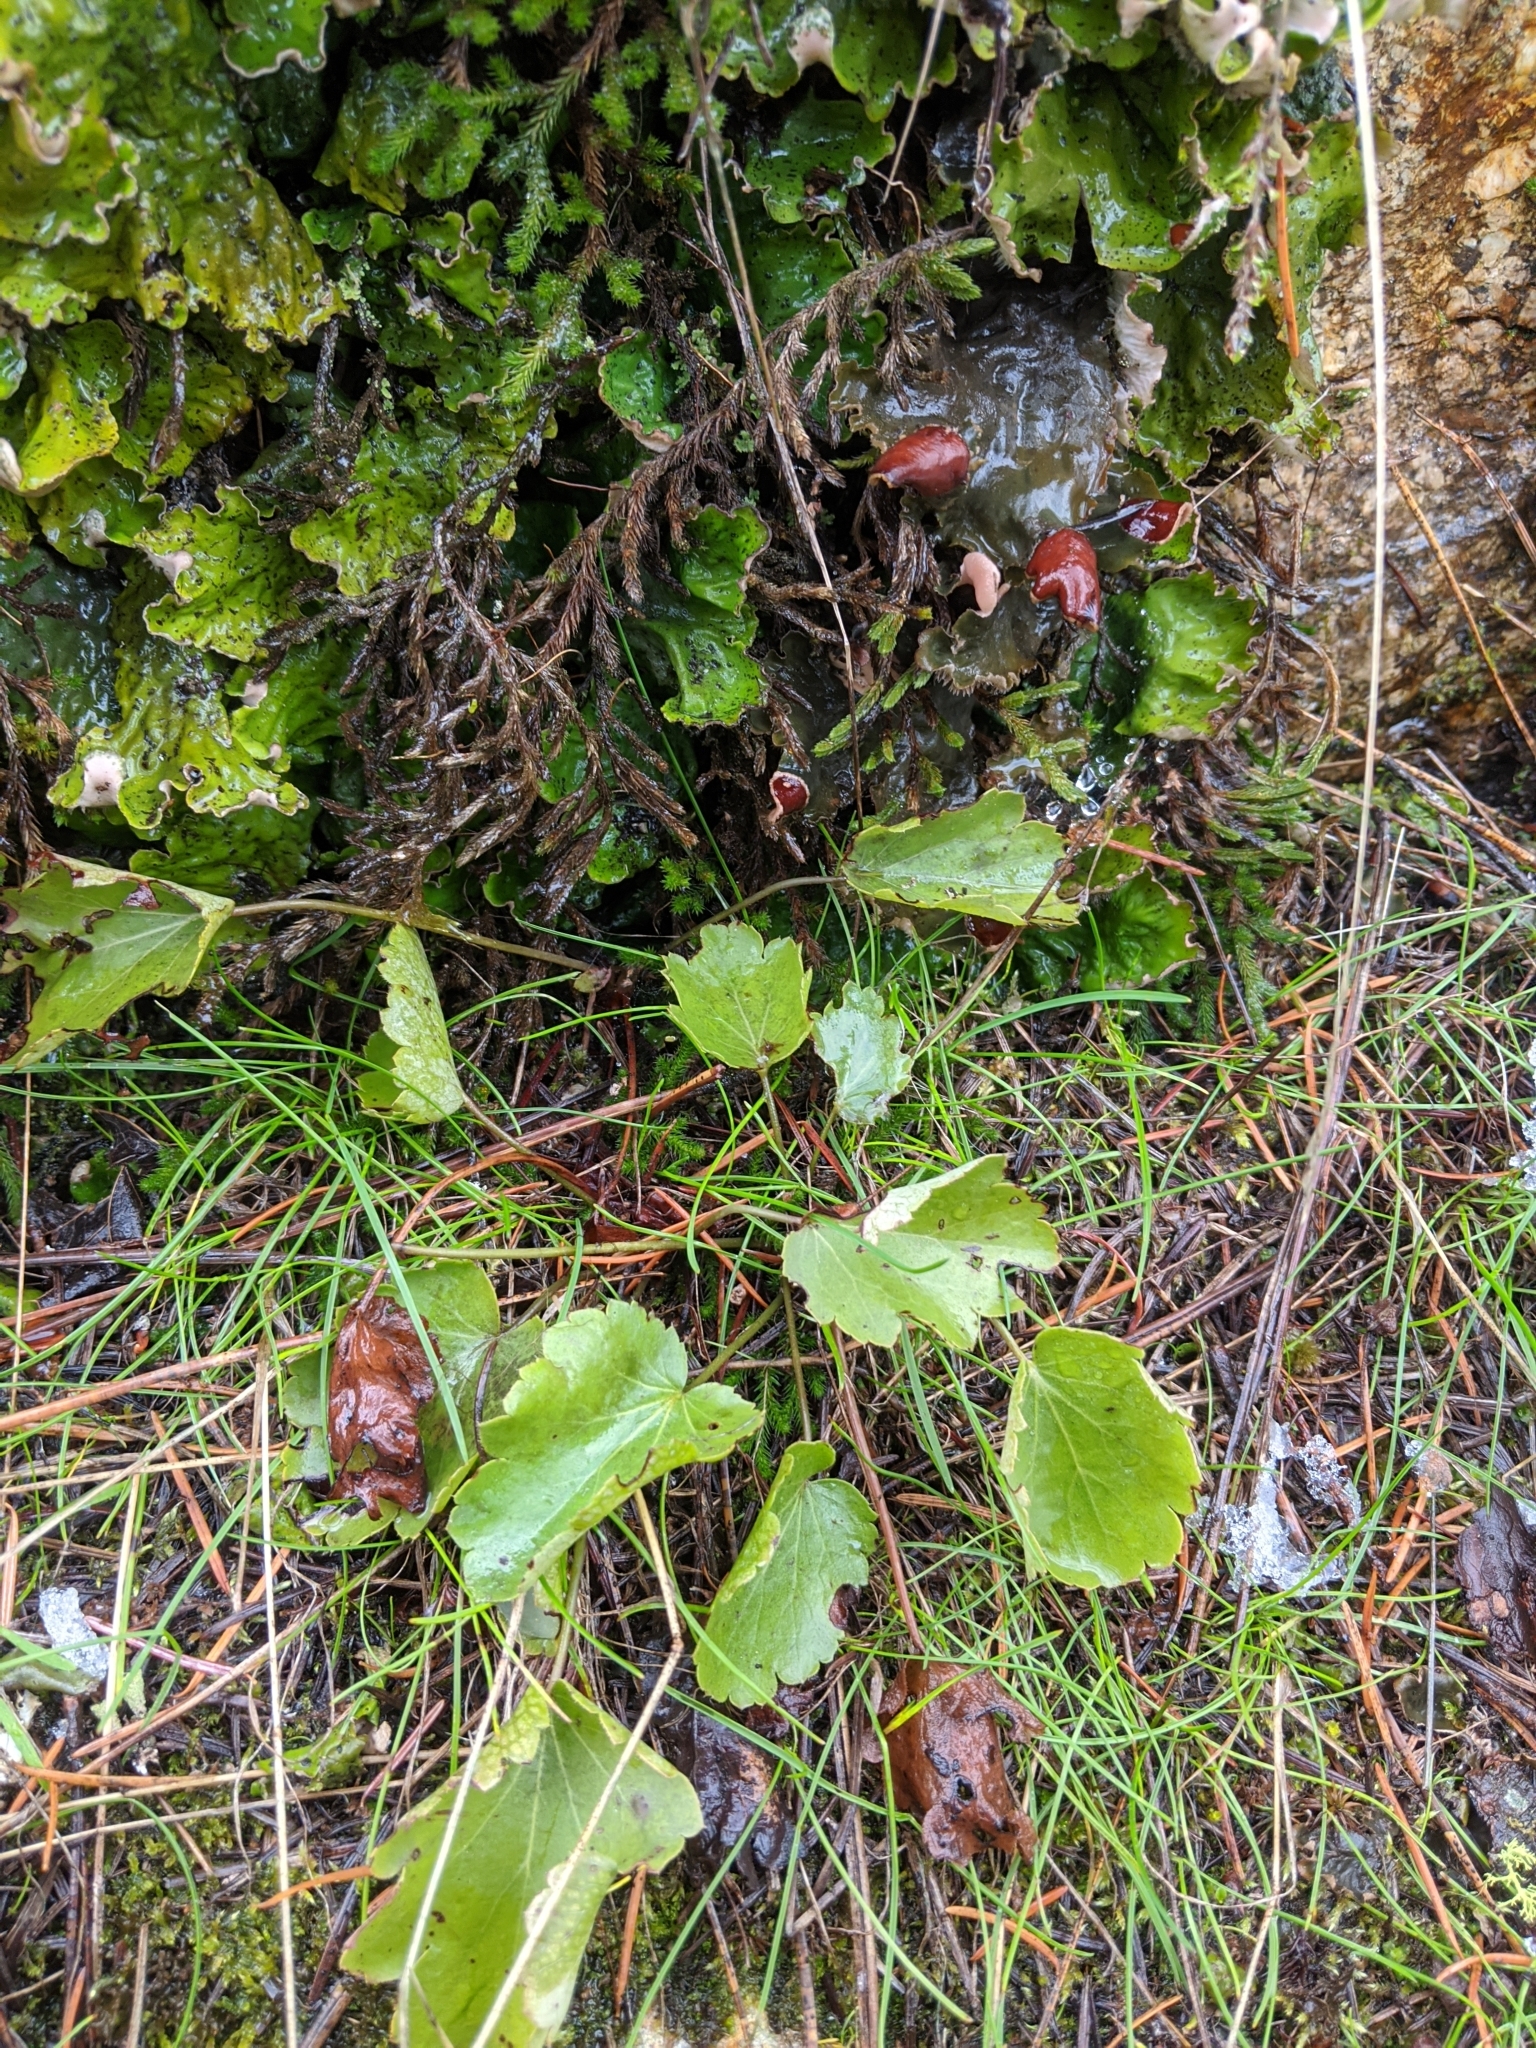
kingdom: Plantae
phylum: Tracheophyta
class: Magnoliopsida
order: Saxifragales
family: Saxifragaceae
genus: Heuchera
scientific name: Heuchera cylindrica
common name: Mat alumroot
